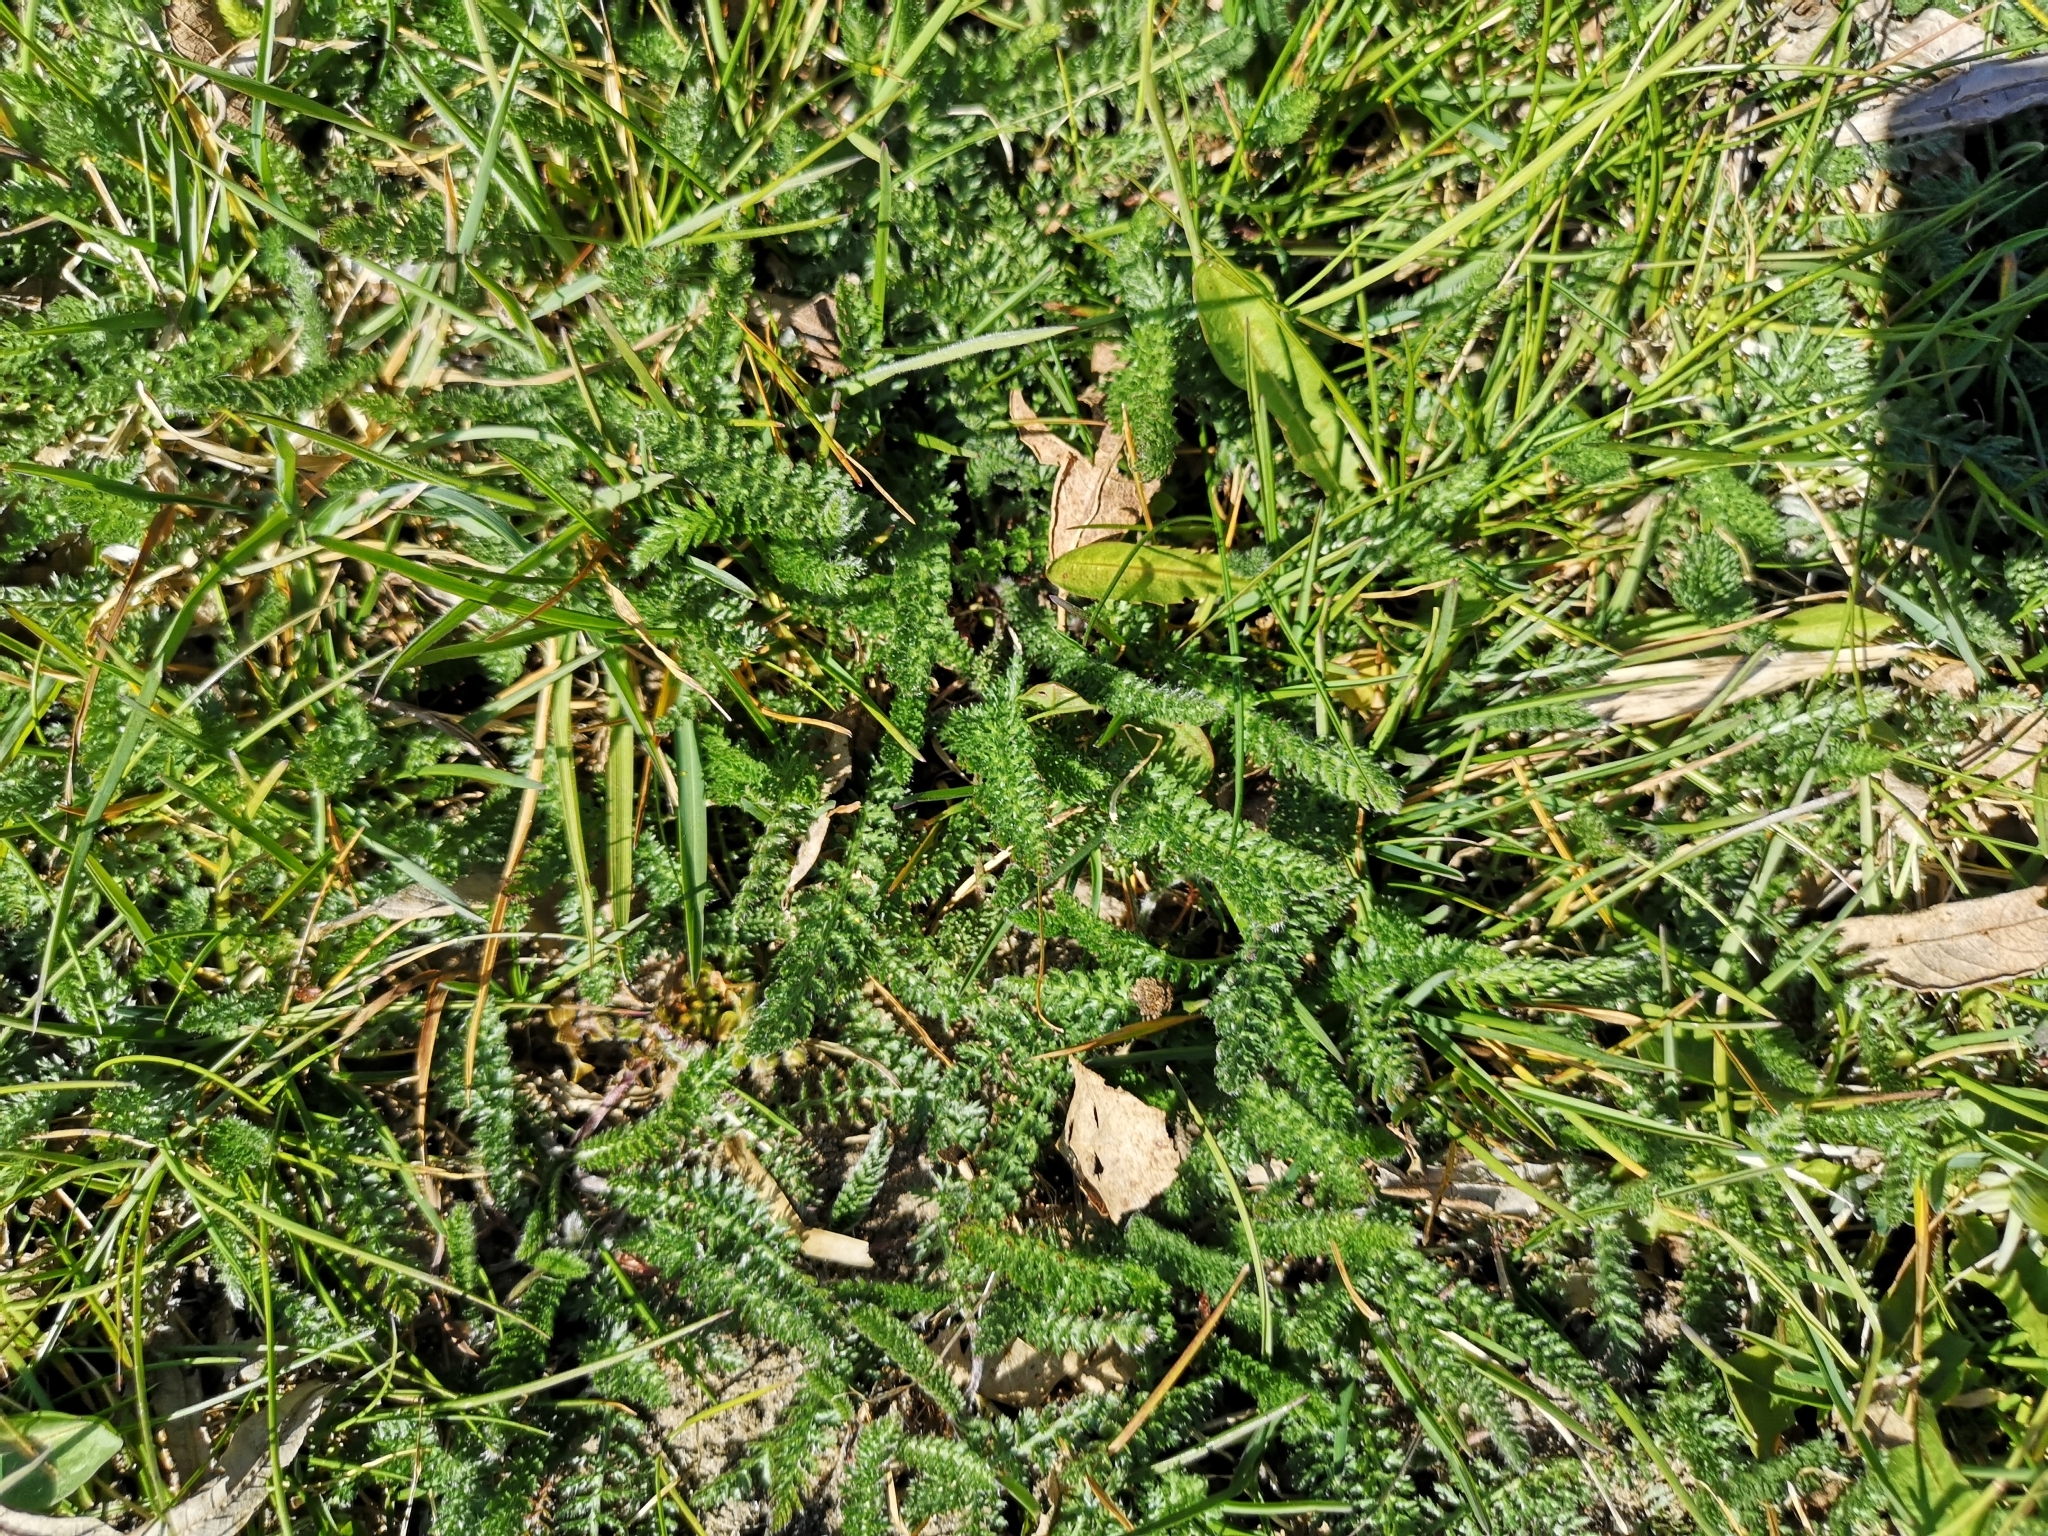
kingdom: Plantae
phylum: Tracheophyta
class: Magnoliopsida
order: Asterales
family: Asteraceae
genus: Achillea
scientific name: Achillea millefolium
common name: Yarrow
